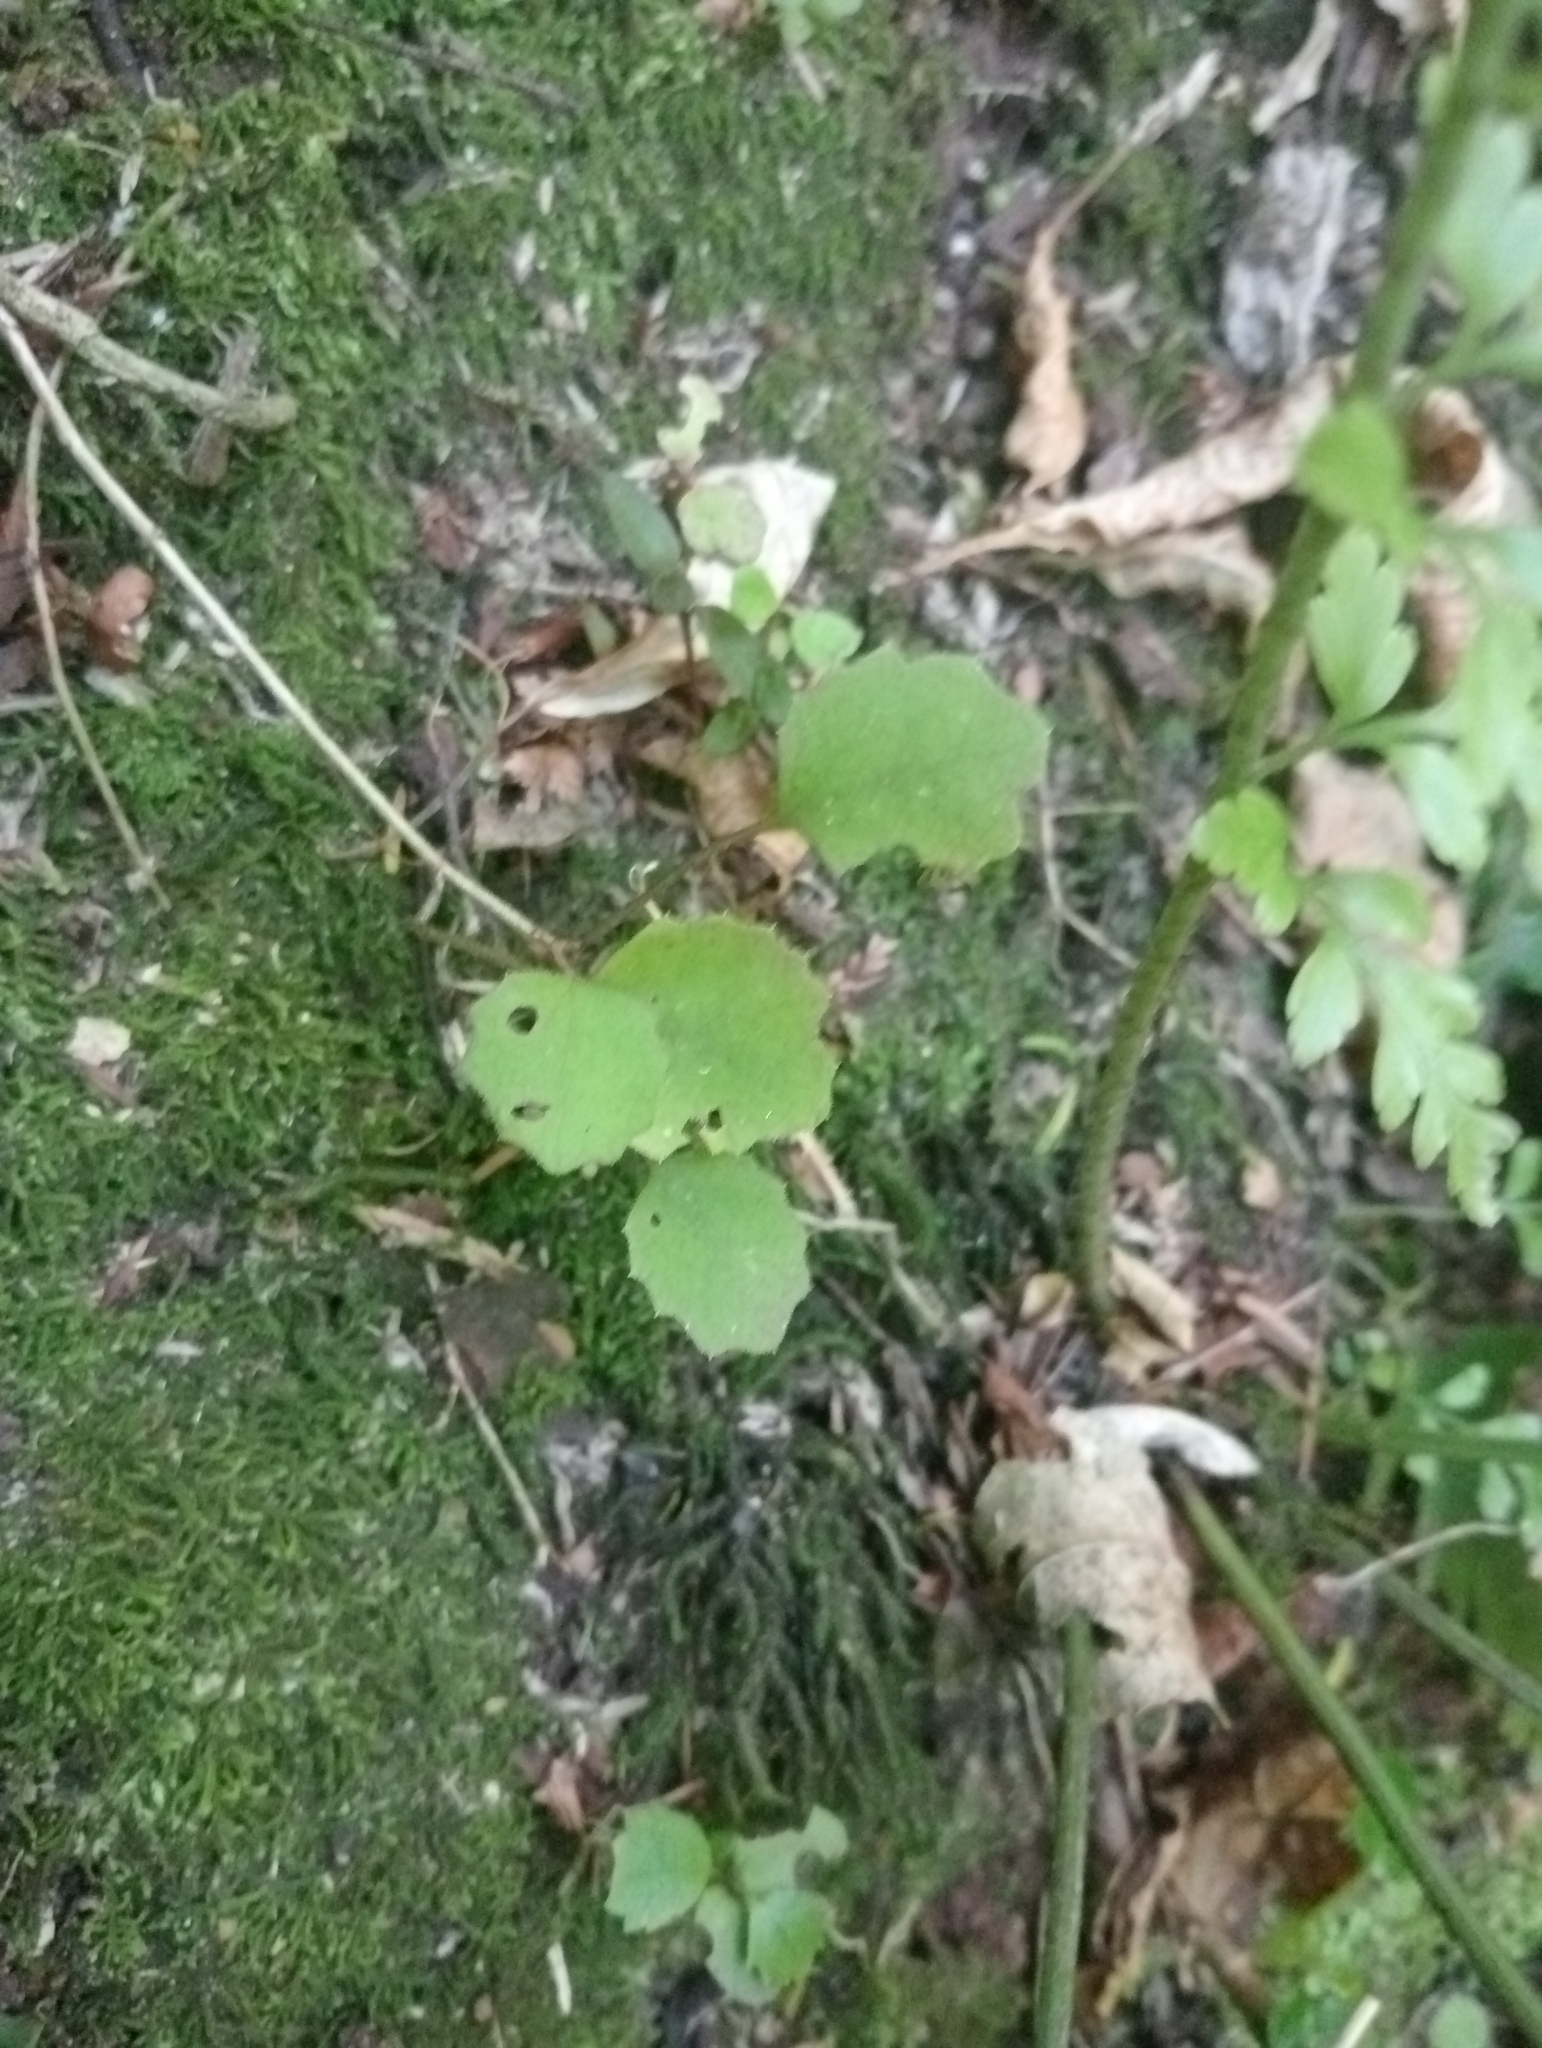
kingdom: Plantae
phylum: Tracheophyta
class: Magnoliopsida
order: Asterales
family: Asteraceae
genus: Brachyglottis
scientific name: Brachyglottis sciadophila
